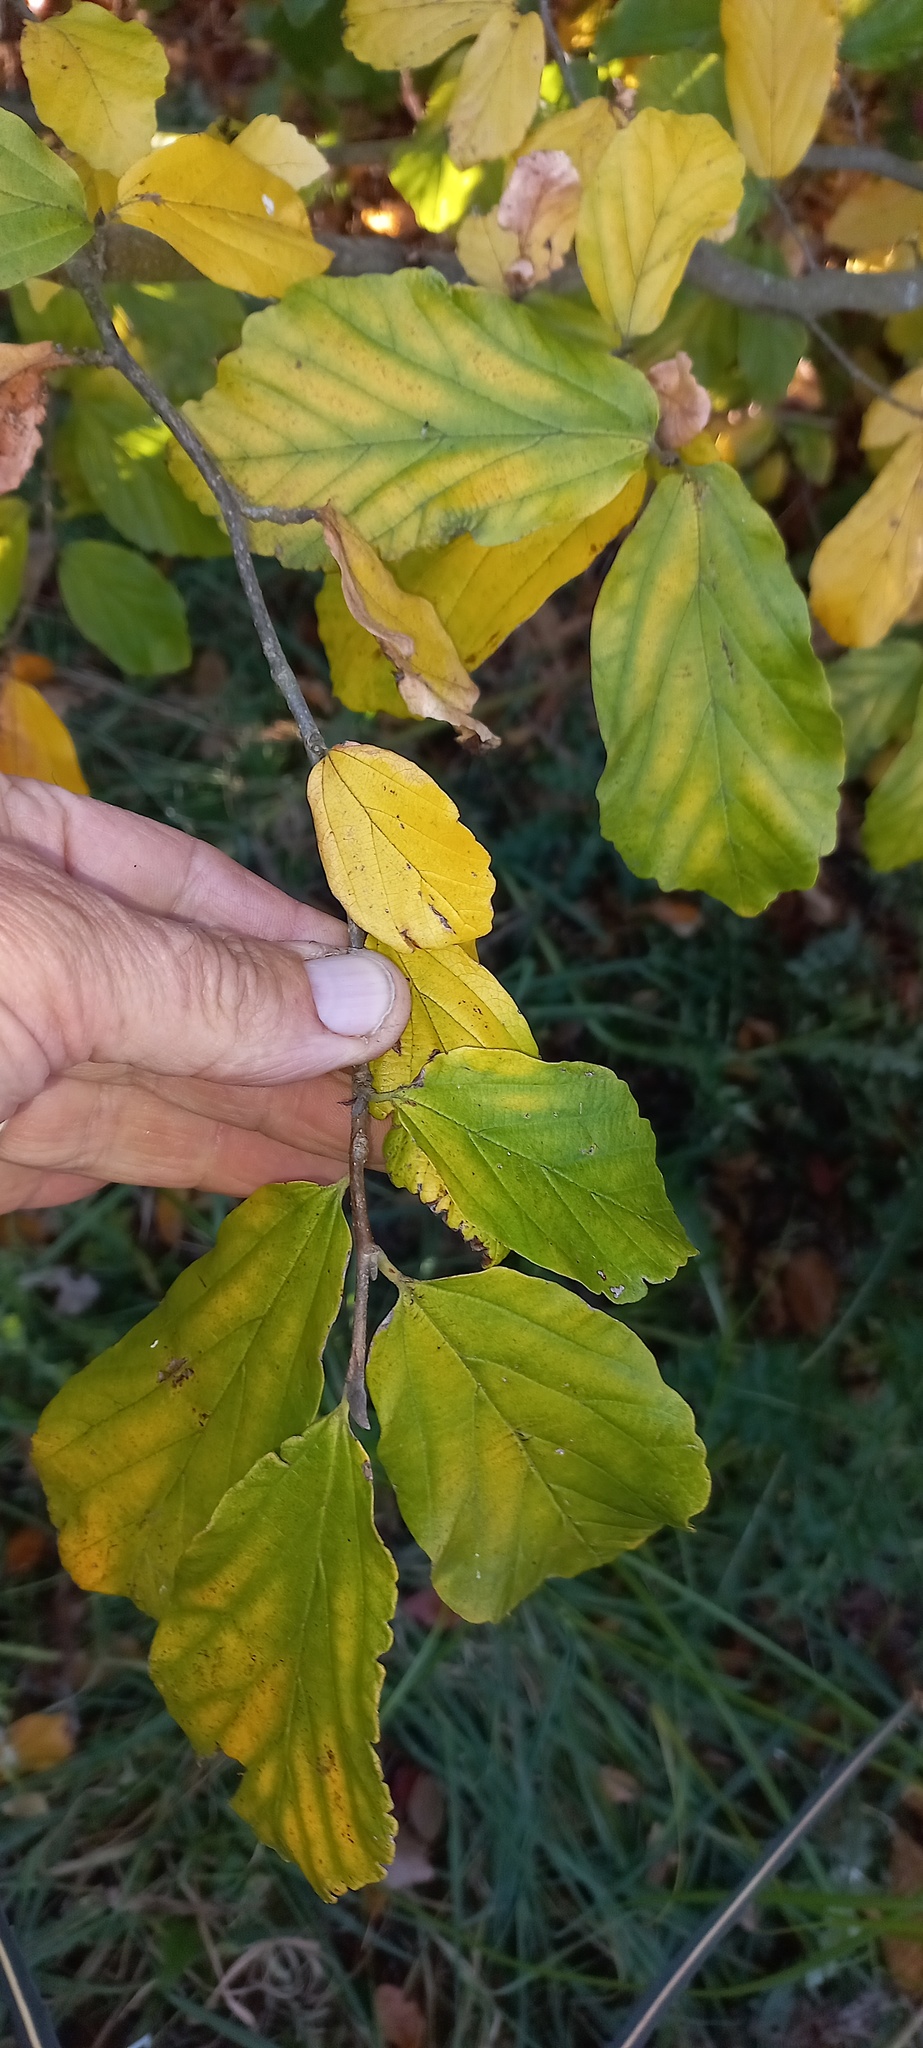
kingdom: Plantae
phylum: Tracheophyta
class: Magnoliopsida
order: Fagales
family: Betulaceae
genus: Corylus
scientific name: Corylus avellana
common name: European hazel
